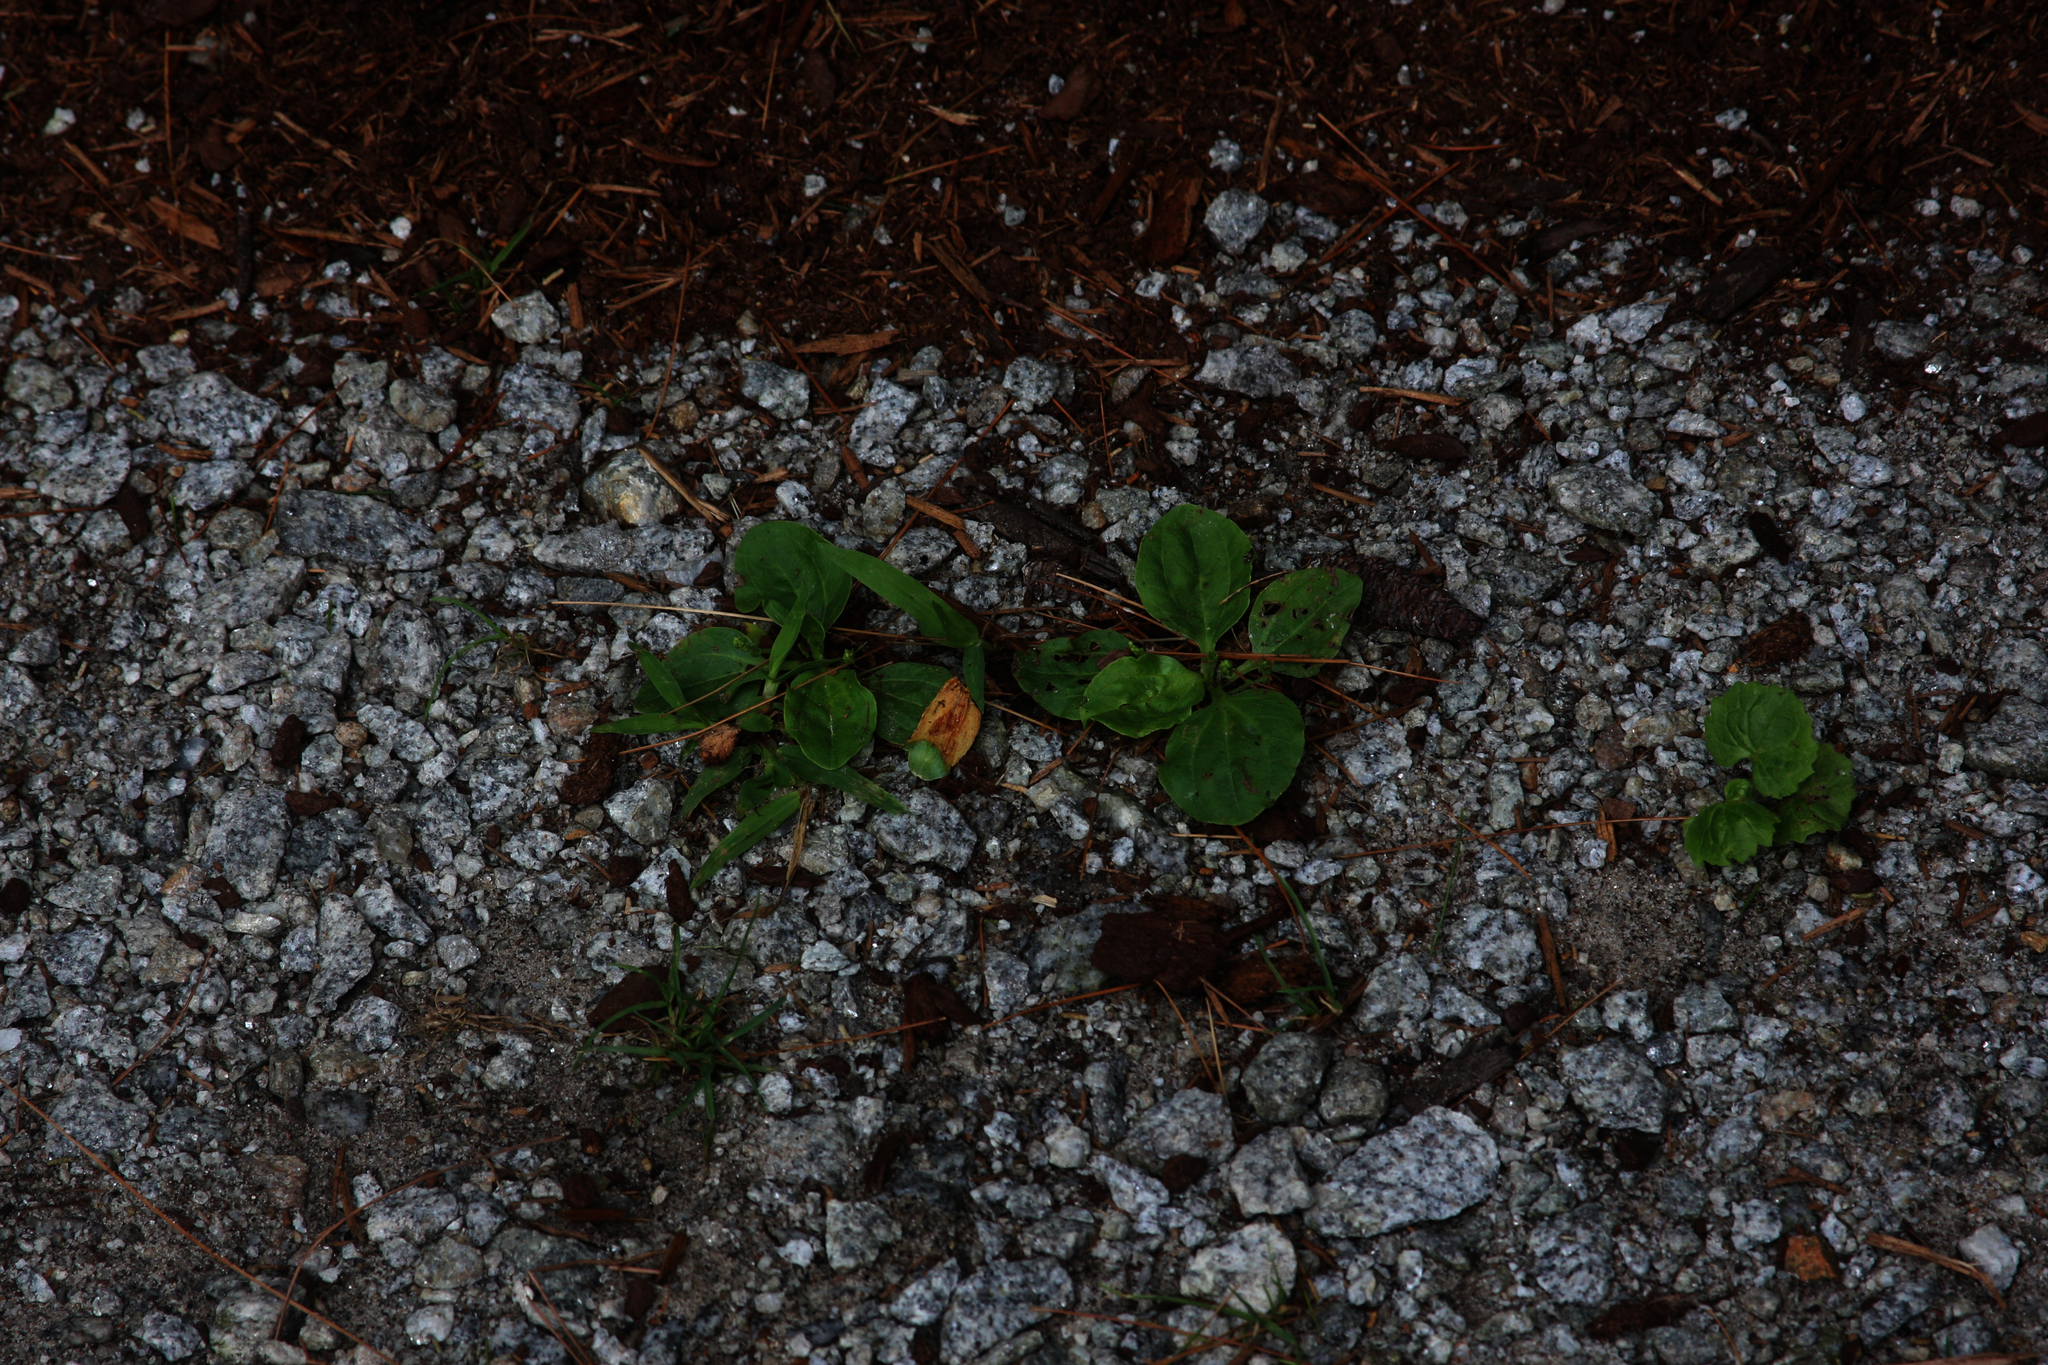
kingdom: Plantae
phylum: Tracheophyta
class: Magnoliopsida
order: Lamiales
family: Plantaginaceae
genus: Plantago
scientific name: Plantago major
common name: Common plantain
